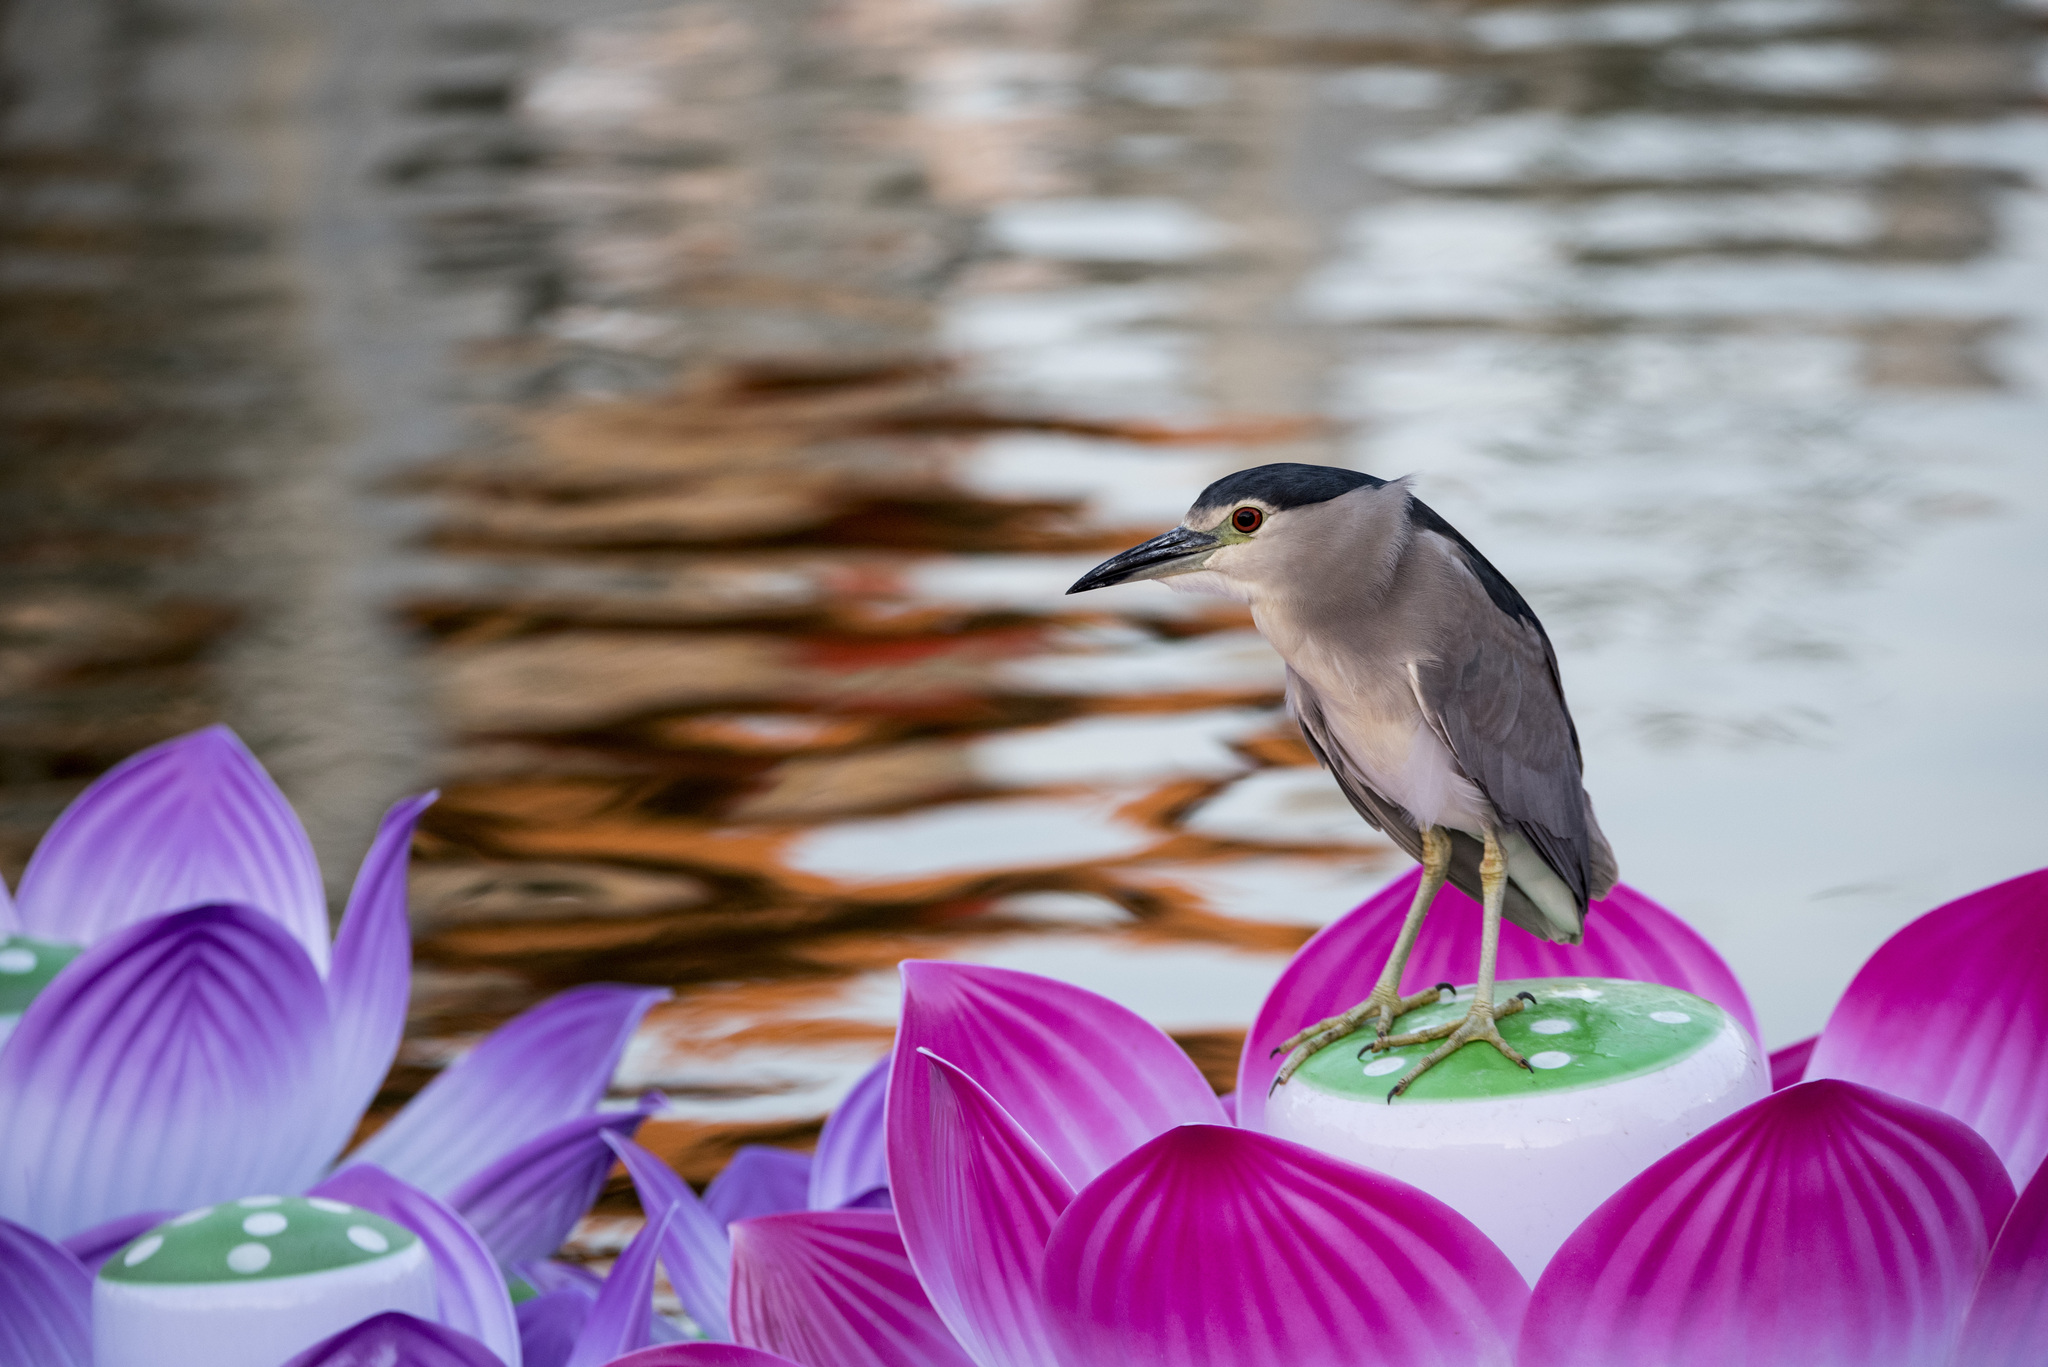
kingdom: Animalia
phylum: Chordata
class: Aves
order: Pelecaniformes
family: Ardeidae
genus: Nycticorax
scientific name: Nycticorax nycticorax
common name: Black-crowned night heron
